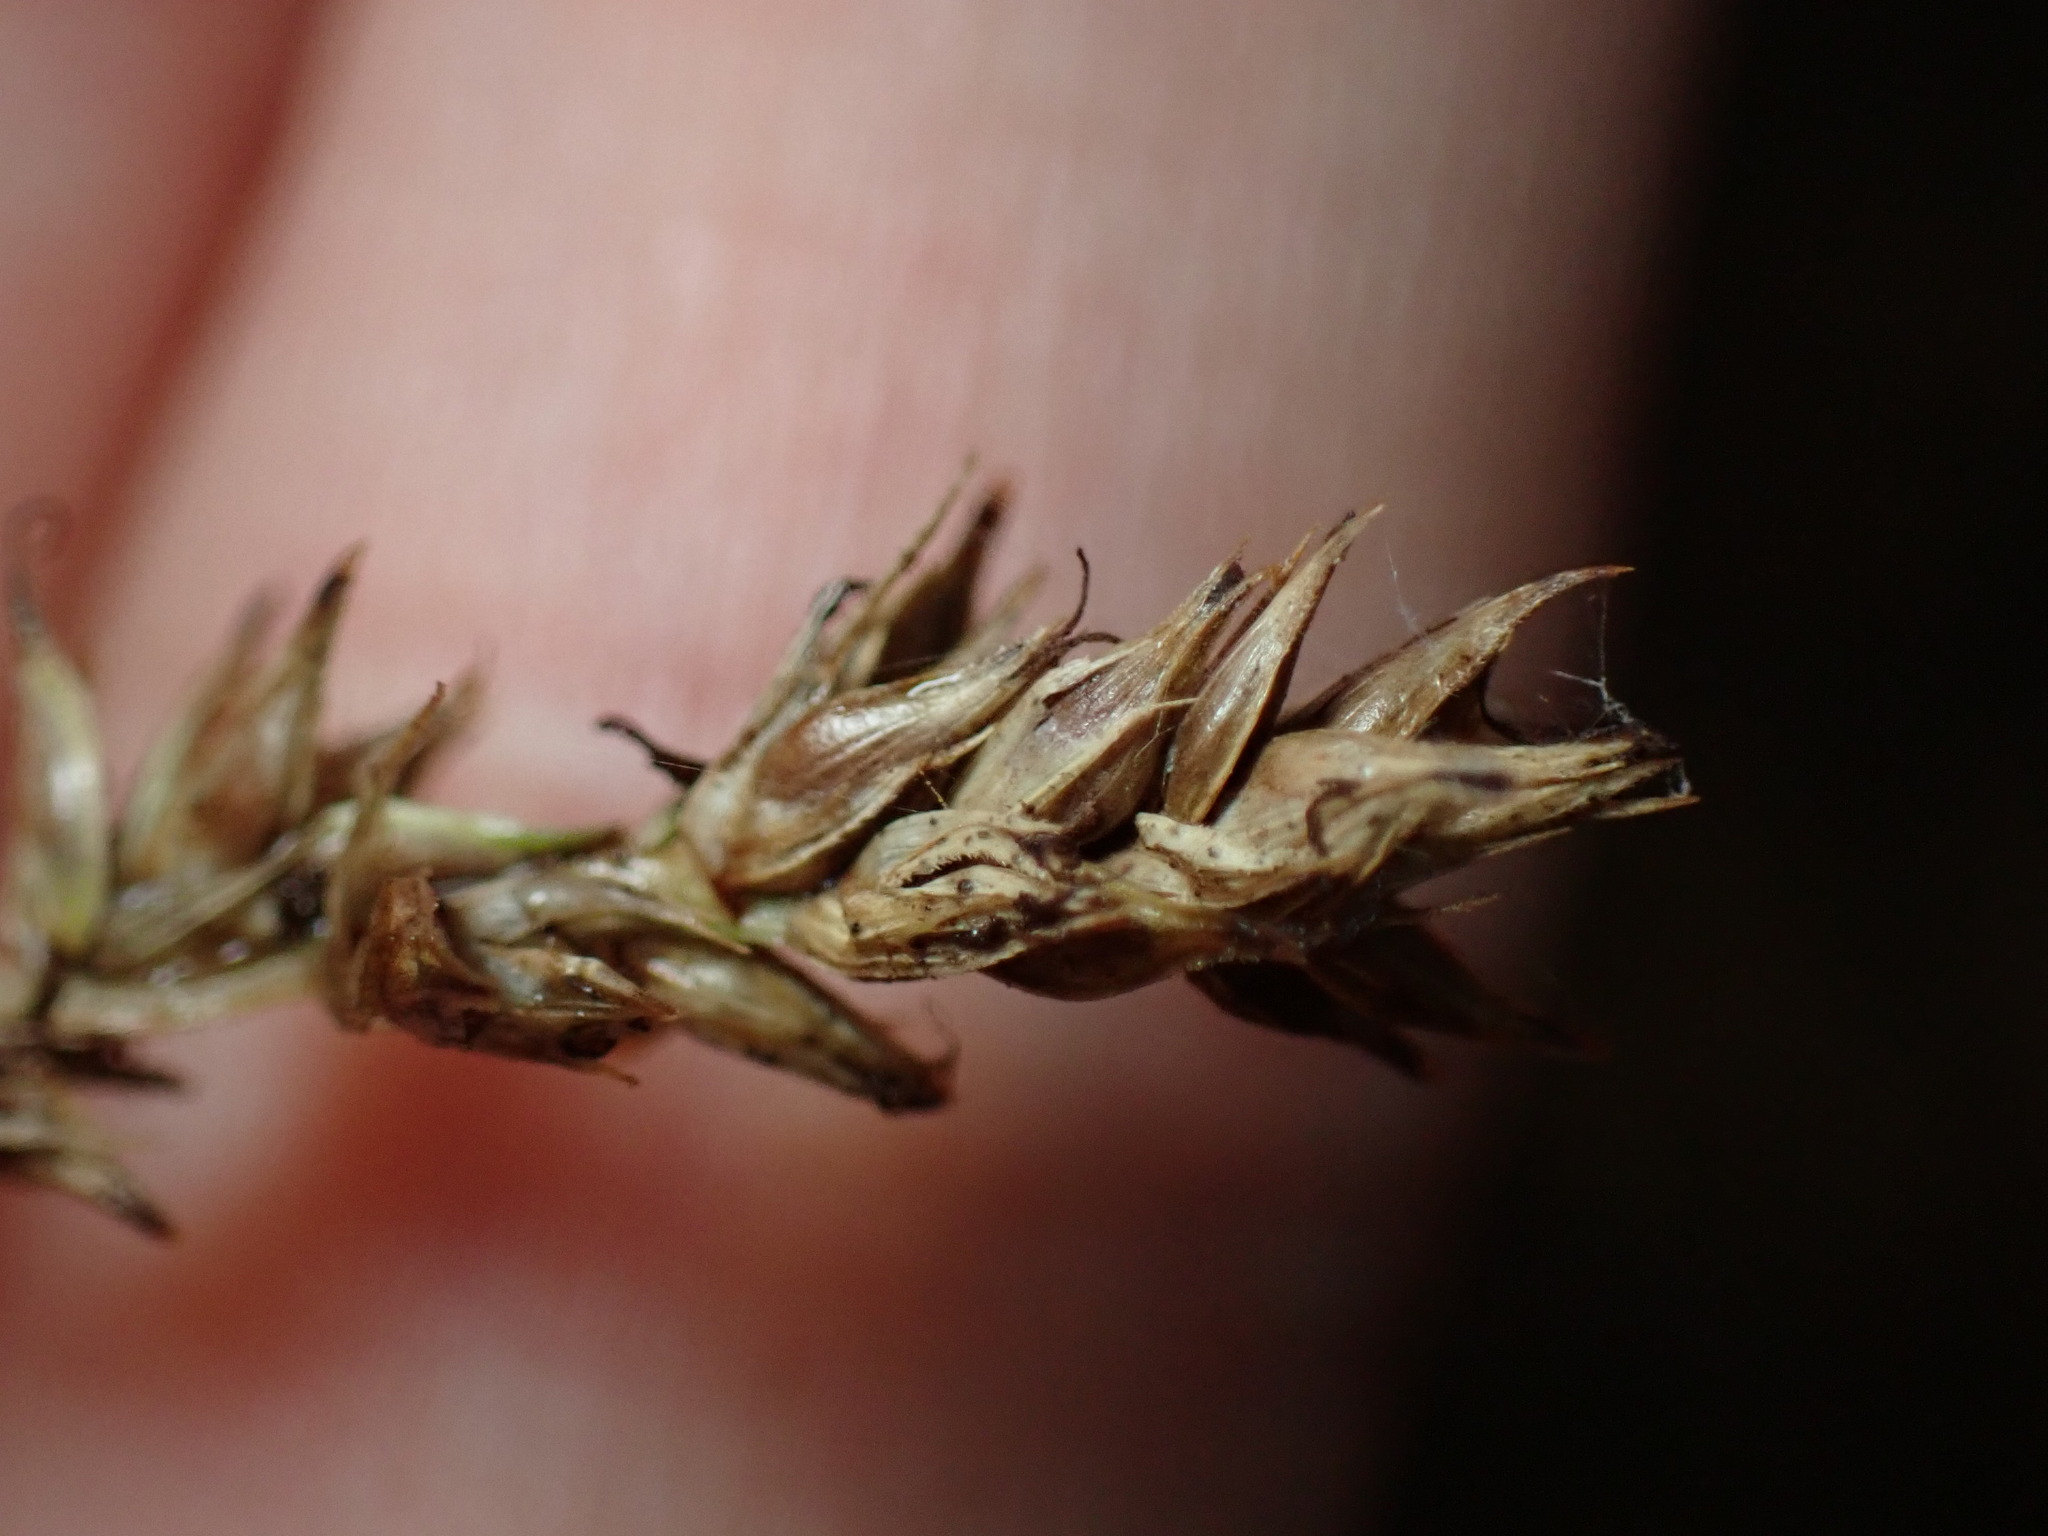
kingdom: Plantae
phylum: Tracheophyta
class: Liliopsida
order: Poales
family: Cyperaceae
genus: Carex
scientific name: Carex canariensis
